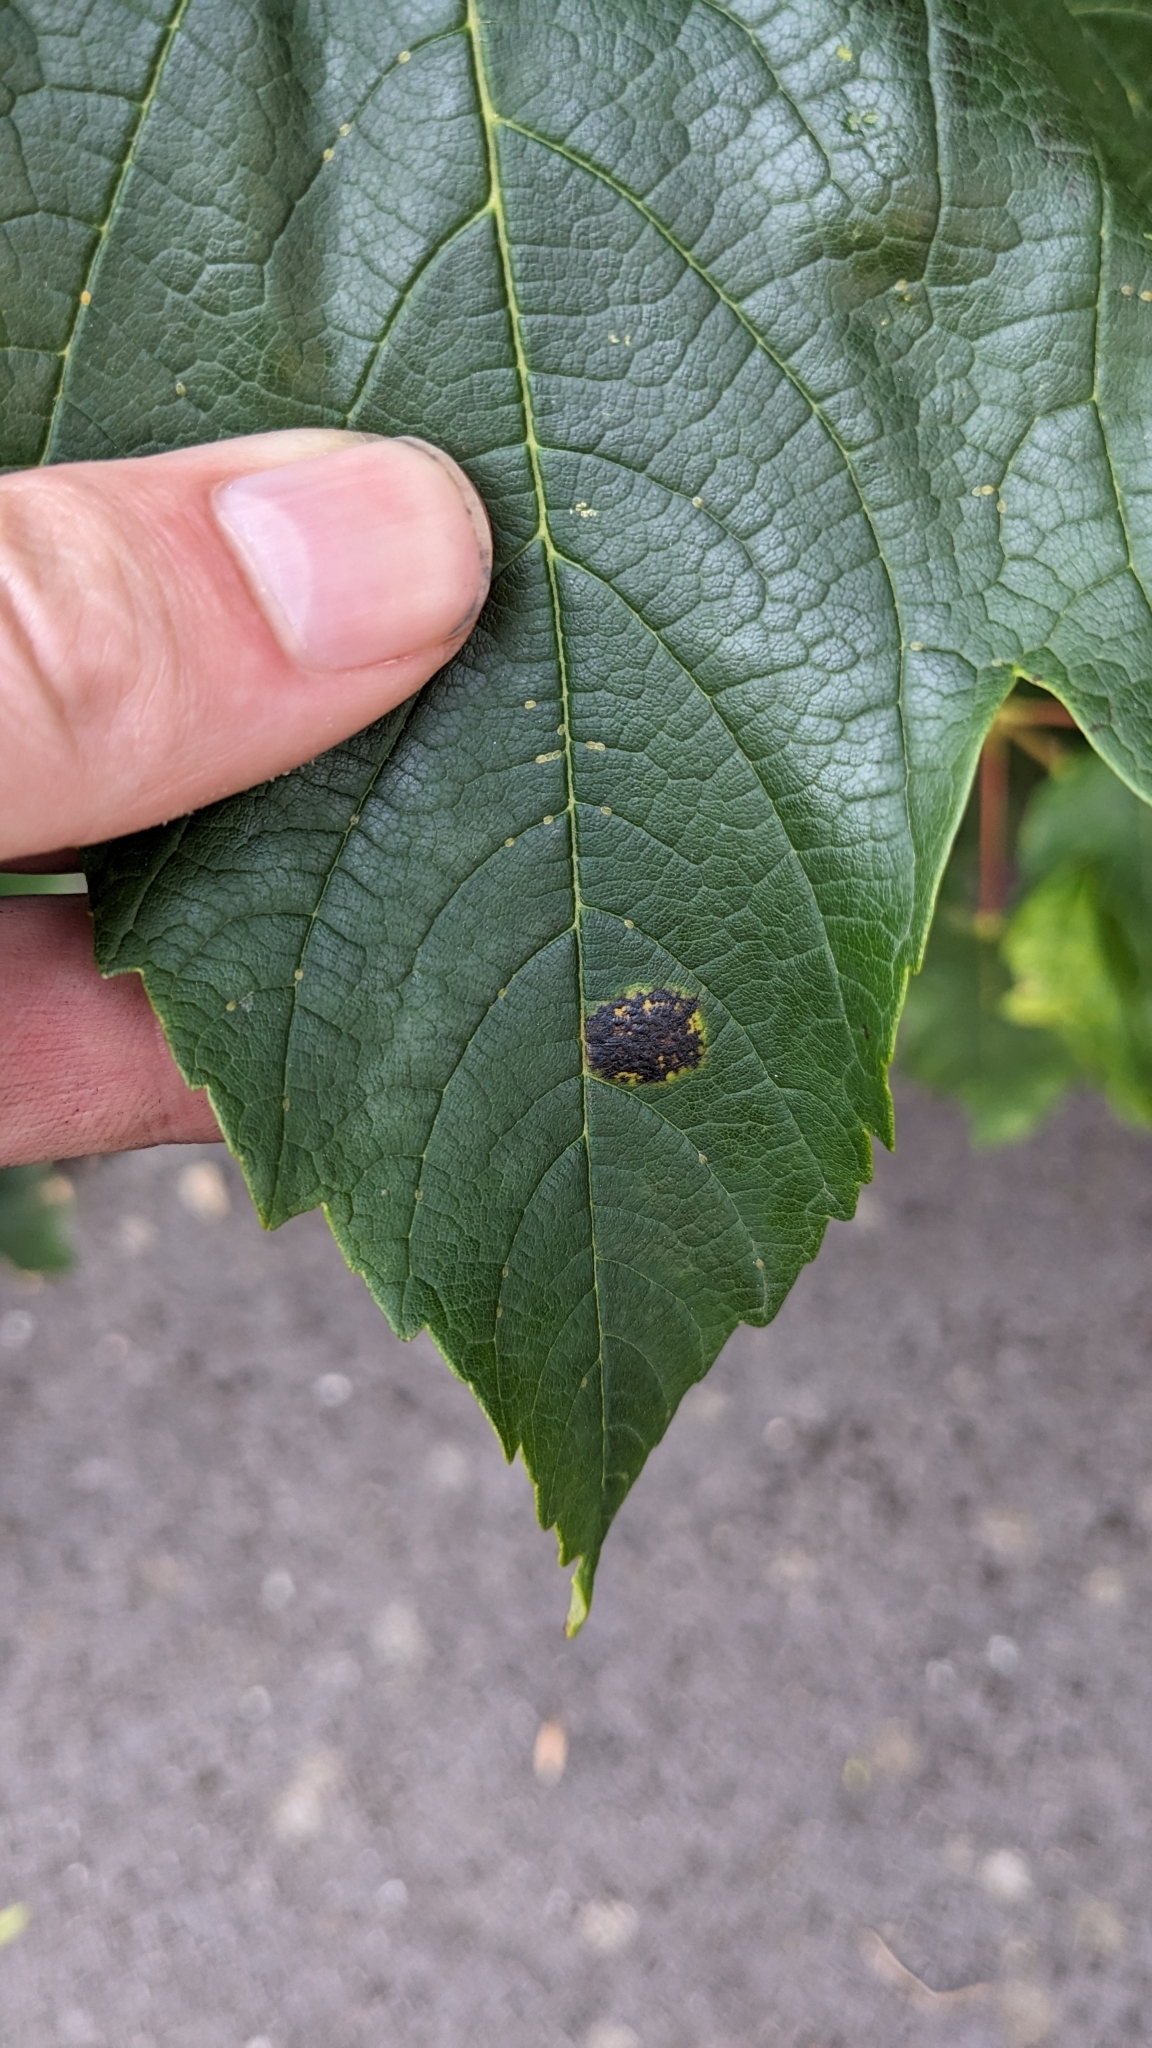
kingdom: Fungi
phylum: Ascomycota
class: Leotiomycetes
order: Rhytismatales
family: Rhytismataceae
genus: Rhytisma
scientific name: Rhytisma acerinum
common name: European tar spot
